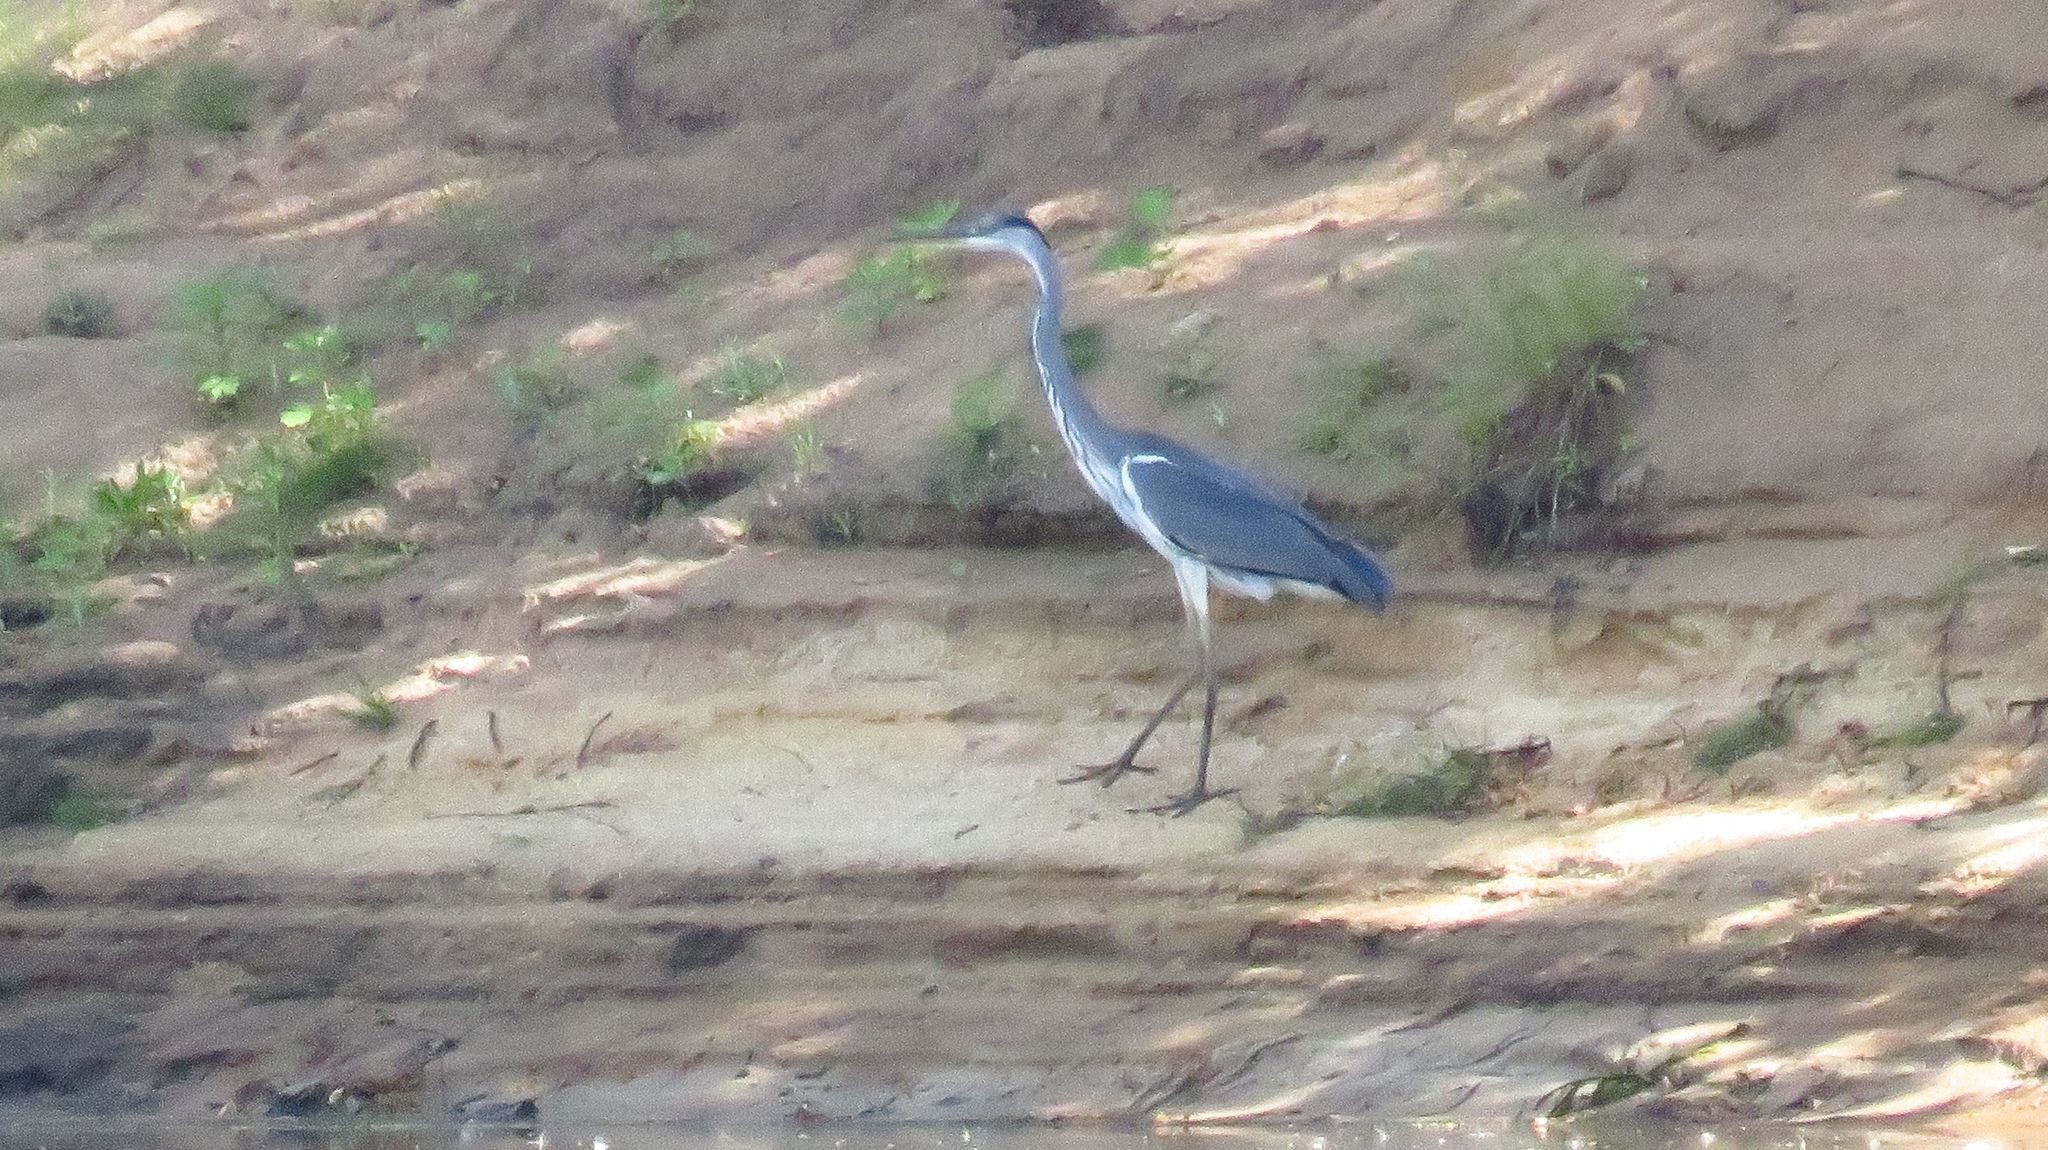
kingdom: Animalia
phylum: Chordata
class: Aves
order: Pelecaniformes
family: Ardeidae
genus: Ardea
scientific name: Ardea cinerea
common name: Grey heron
